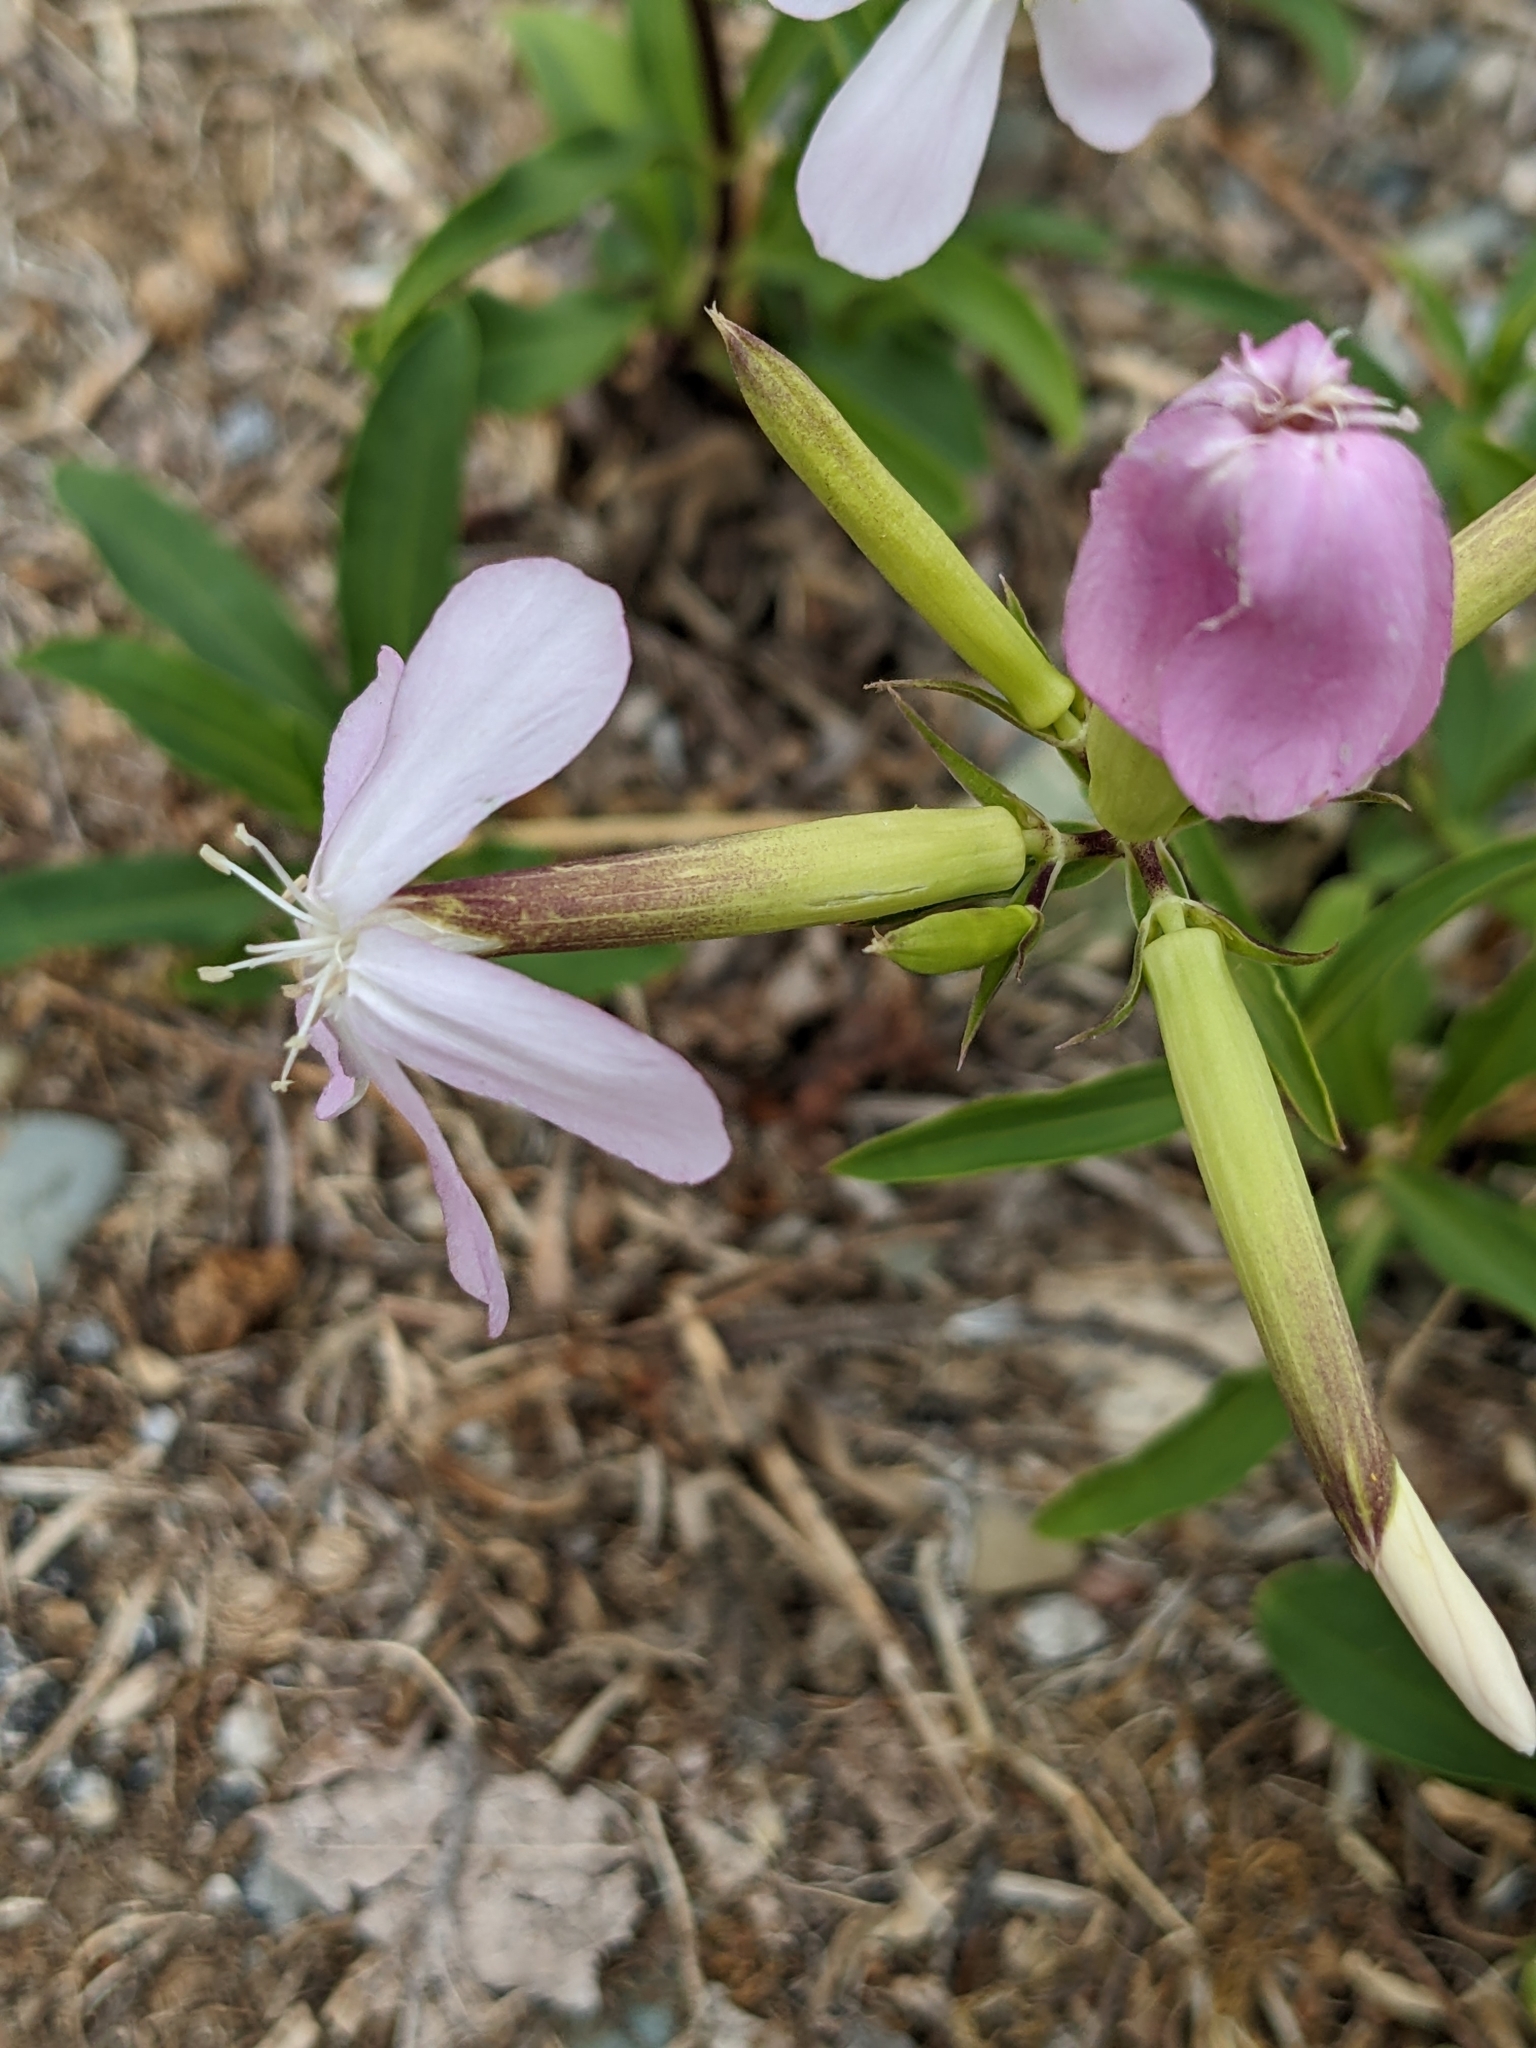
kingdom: Plantae
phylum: Tracheophyta
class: Magnoliopsida
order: Caryophyllales
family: Caryophyllaceae
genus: Saponaria
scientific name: Saponaria officinalis
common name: Soapwort
